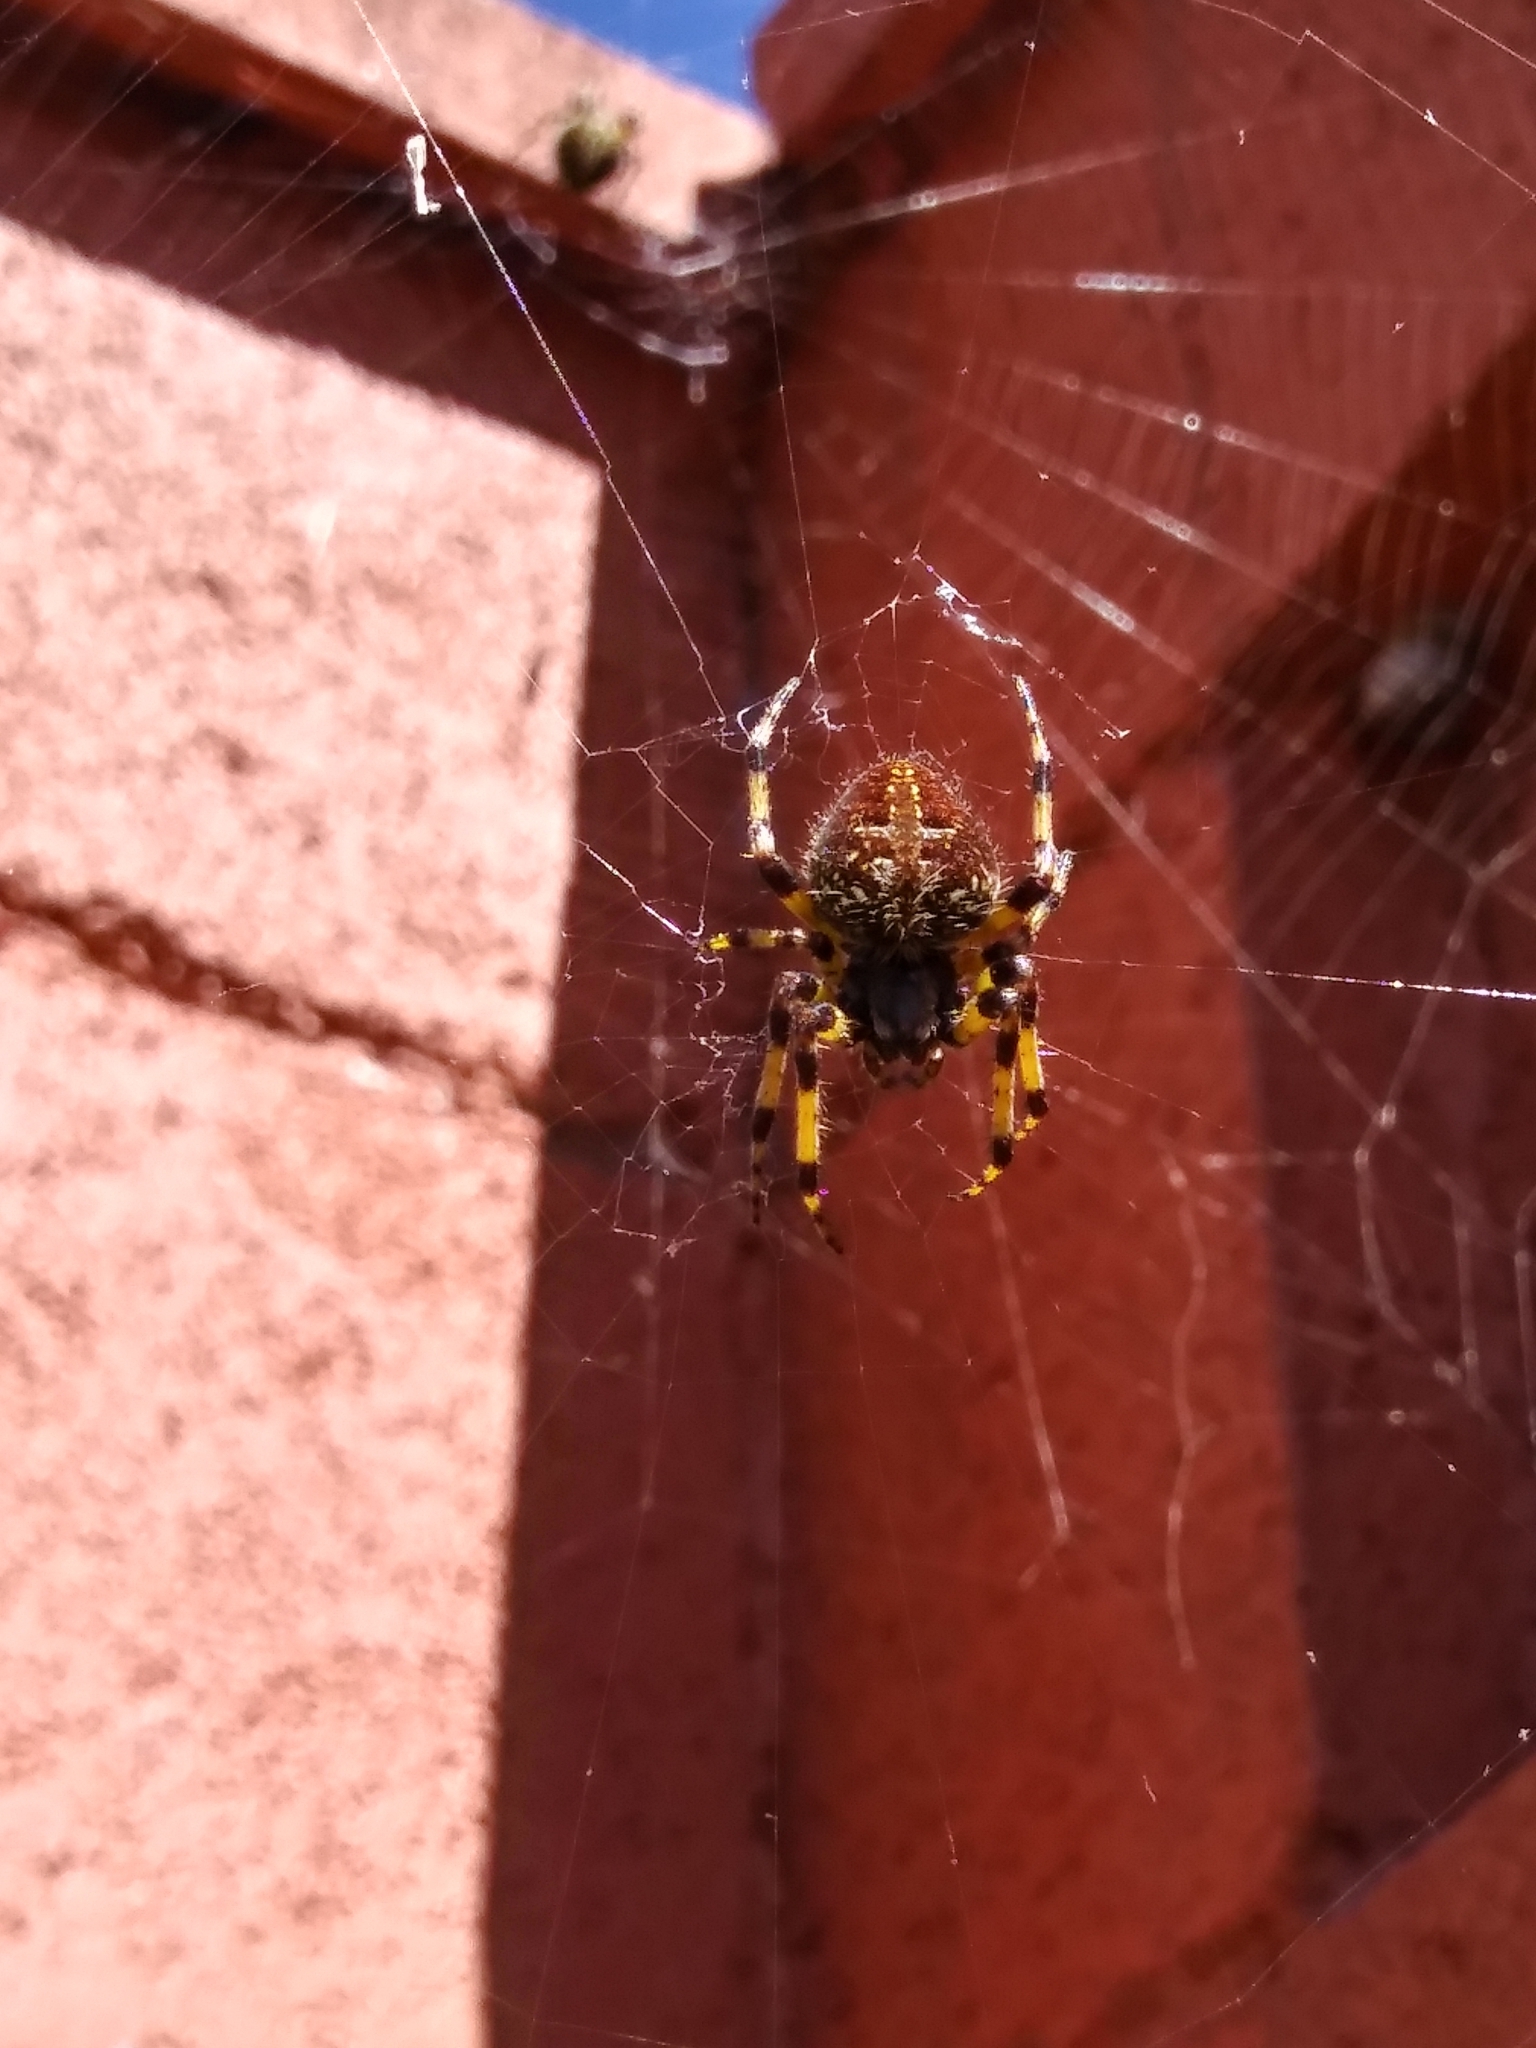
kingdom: Animalia
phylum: Arthropoda
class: Arachnida
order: Araneae
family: Araneidae
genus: Neoscona
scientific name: Neoscona orizabensis
